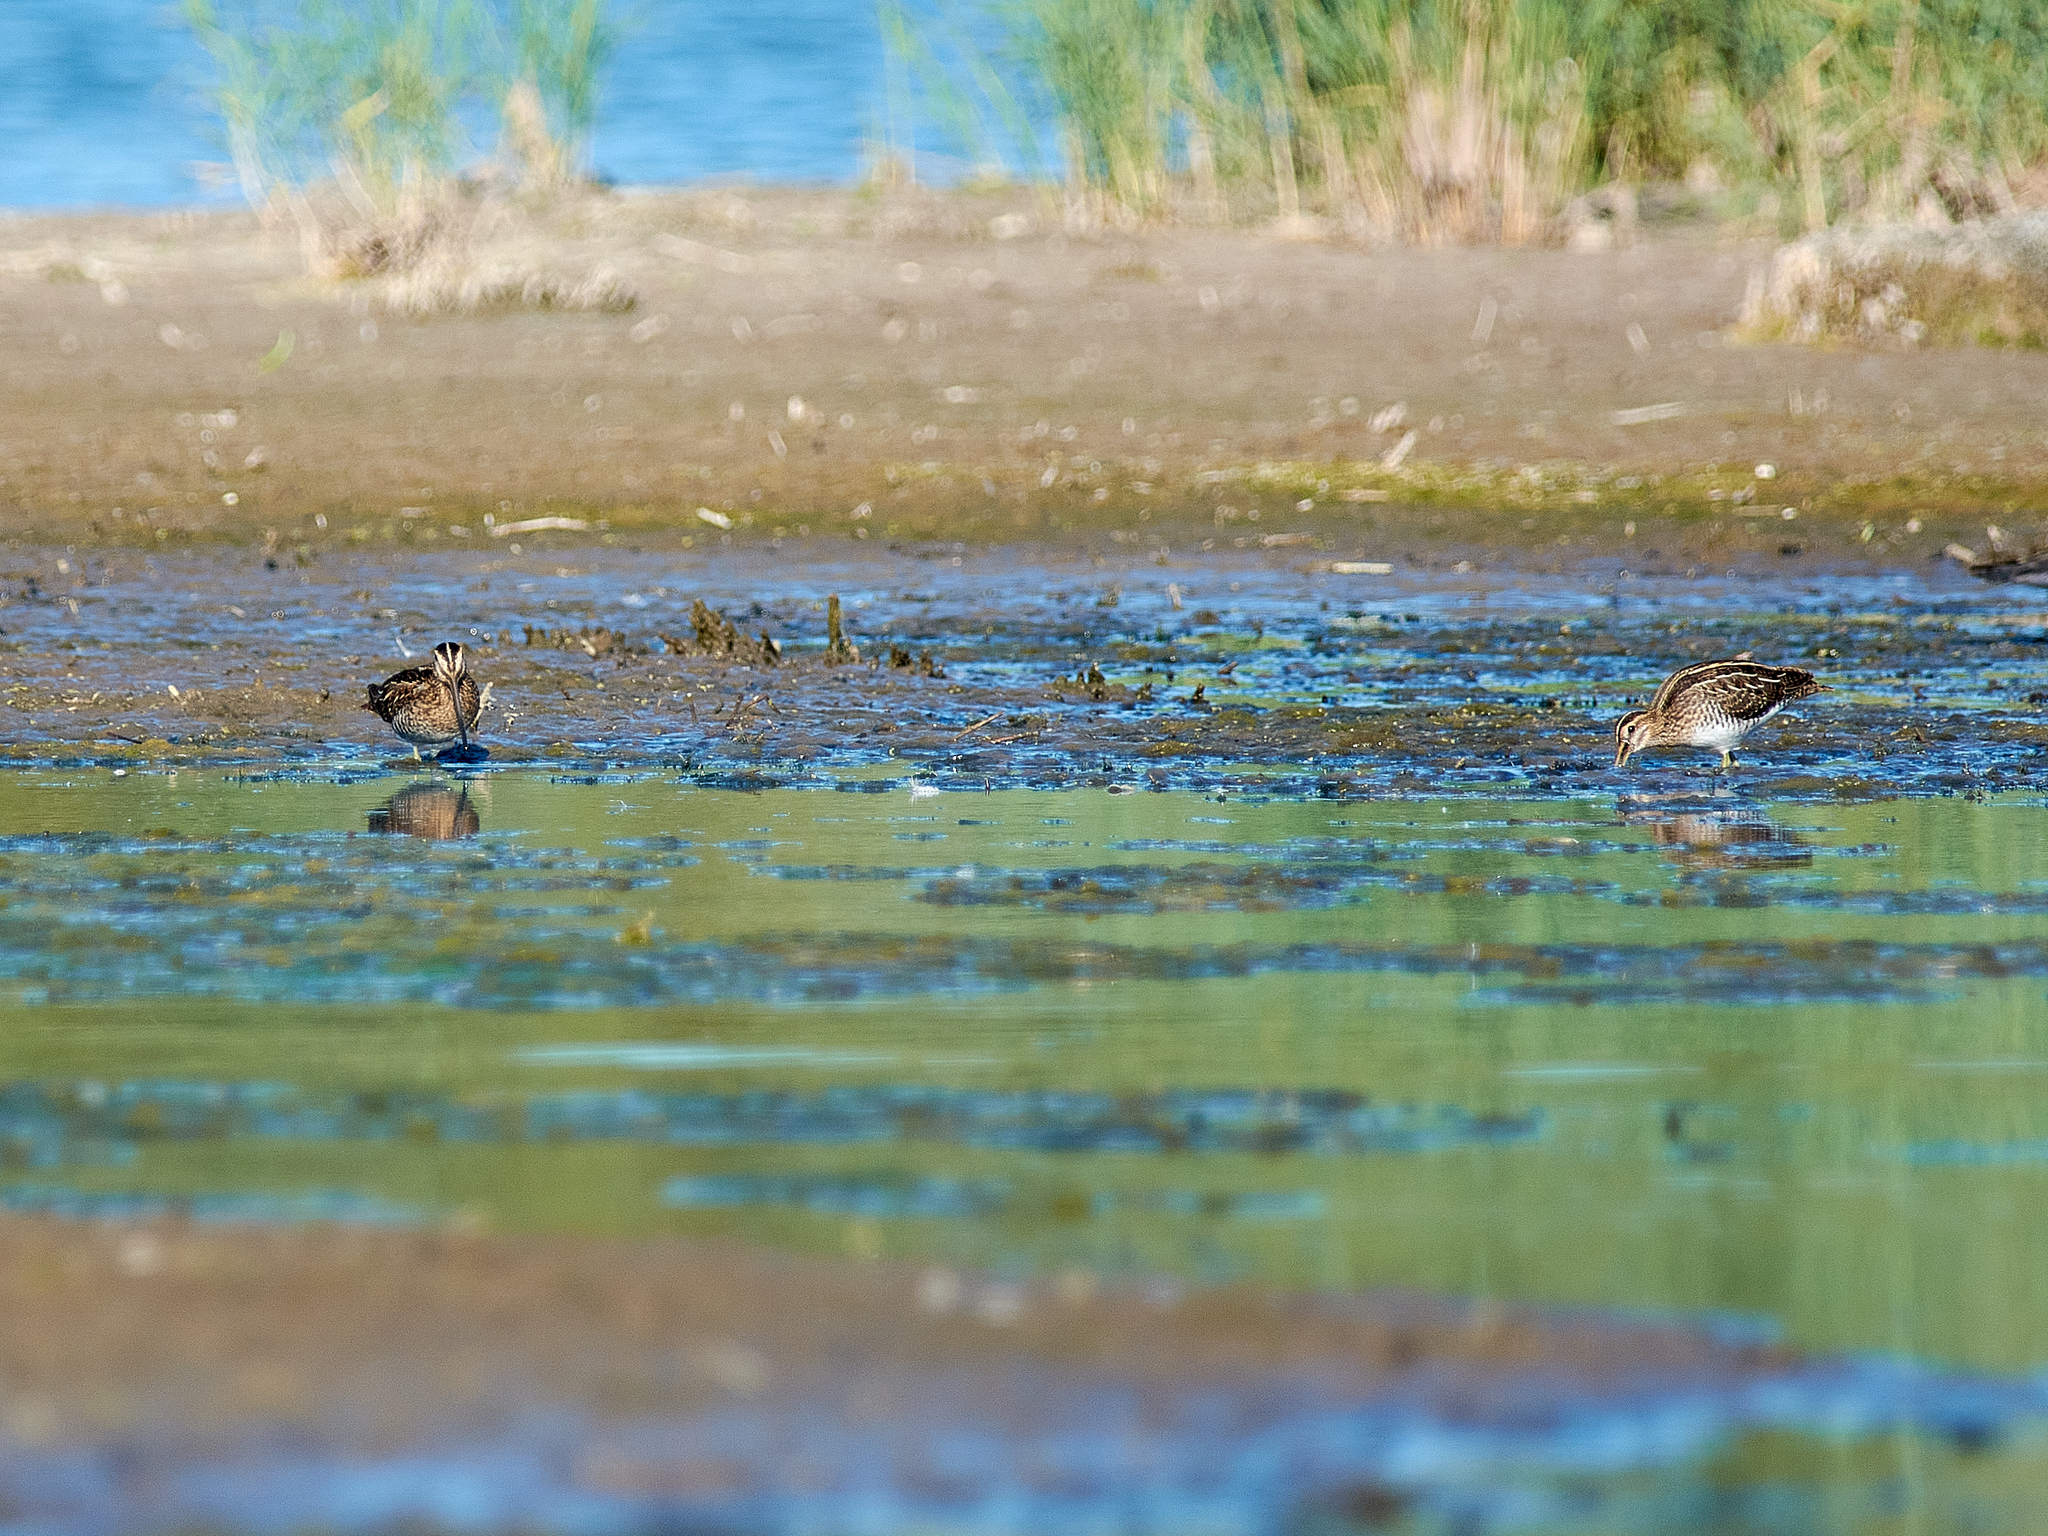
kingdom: Animalia
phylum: Chordata
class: Aves
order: Charadriiformes
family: Scolopacidae
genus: Gallinago
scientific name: Gallinago gallinago
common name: Common snipe
